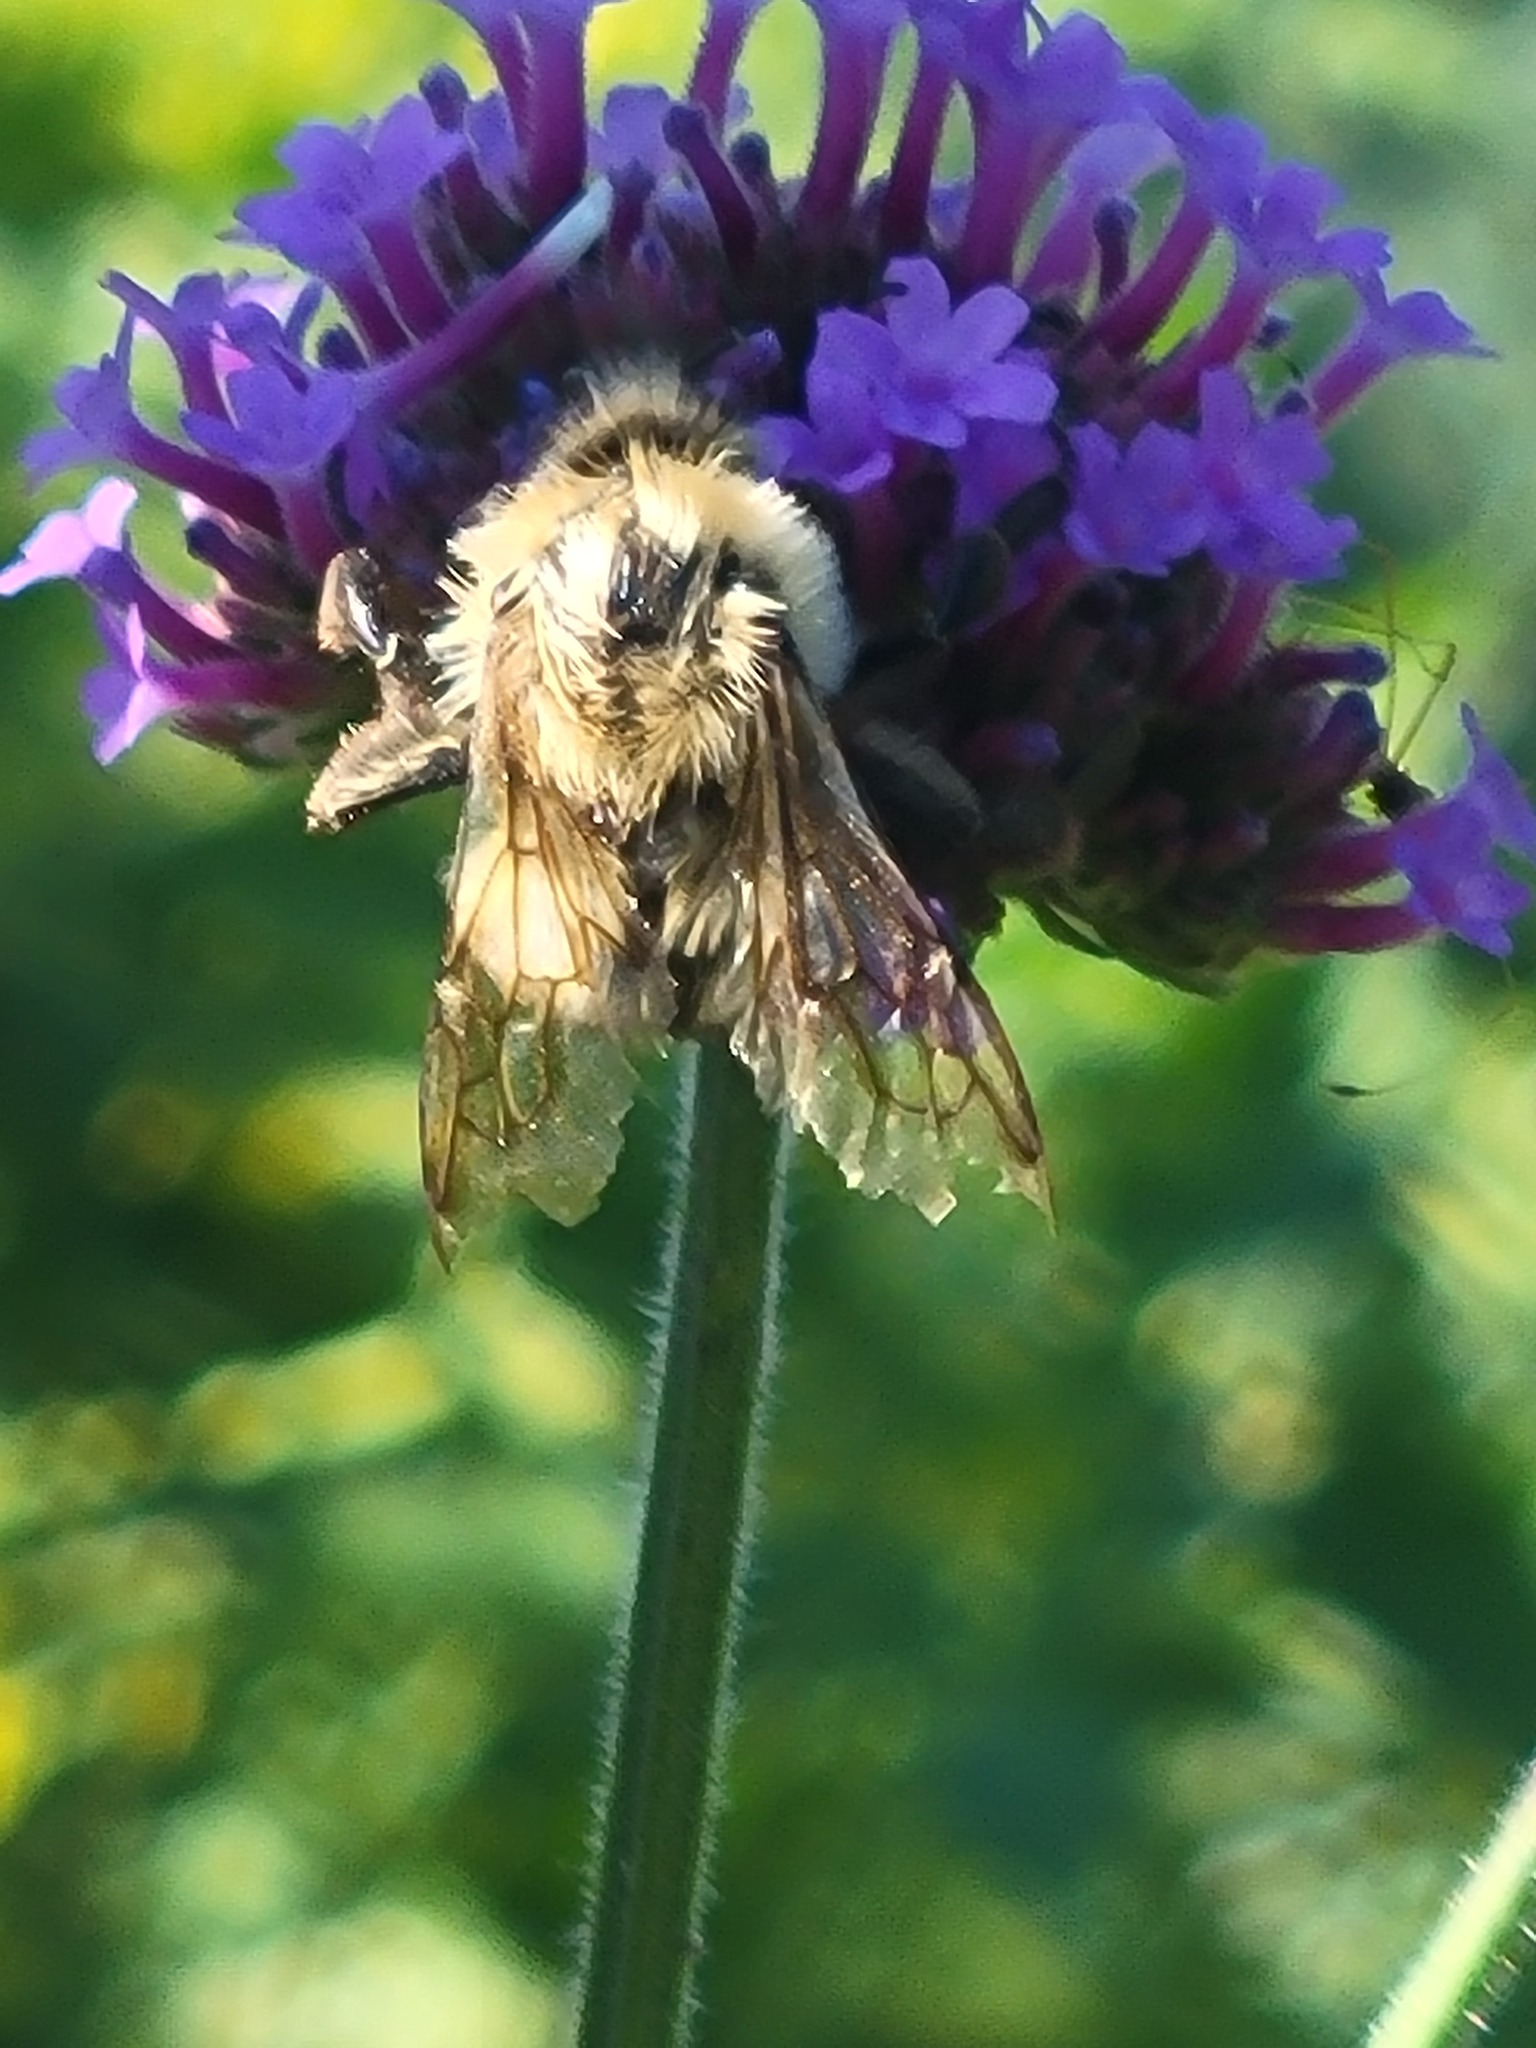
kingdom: Animalia
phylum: Arthropoda
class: Insecta
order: Hymenoptera
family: Apidae
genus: Bombus
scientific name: Bombus bimaculatus
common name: Two-spotted bumble bee
